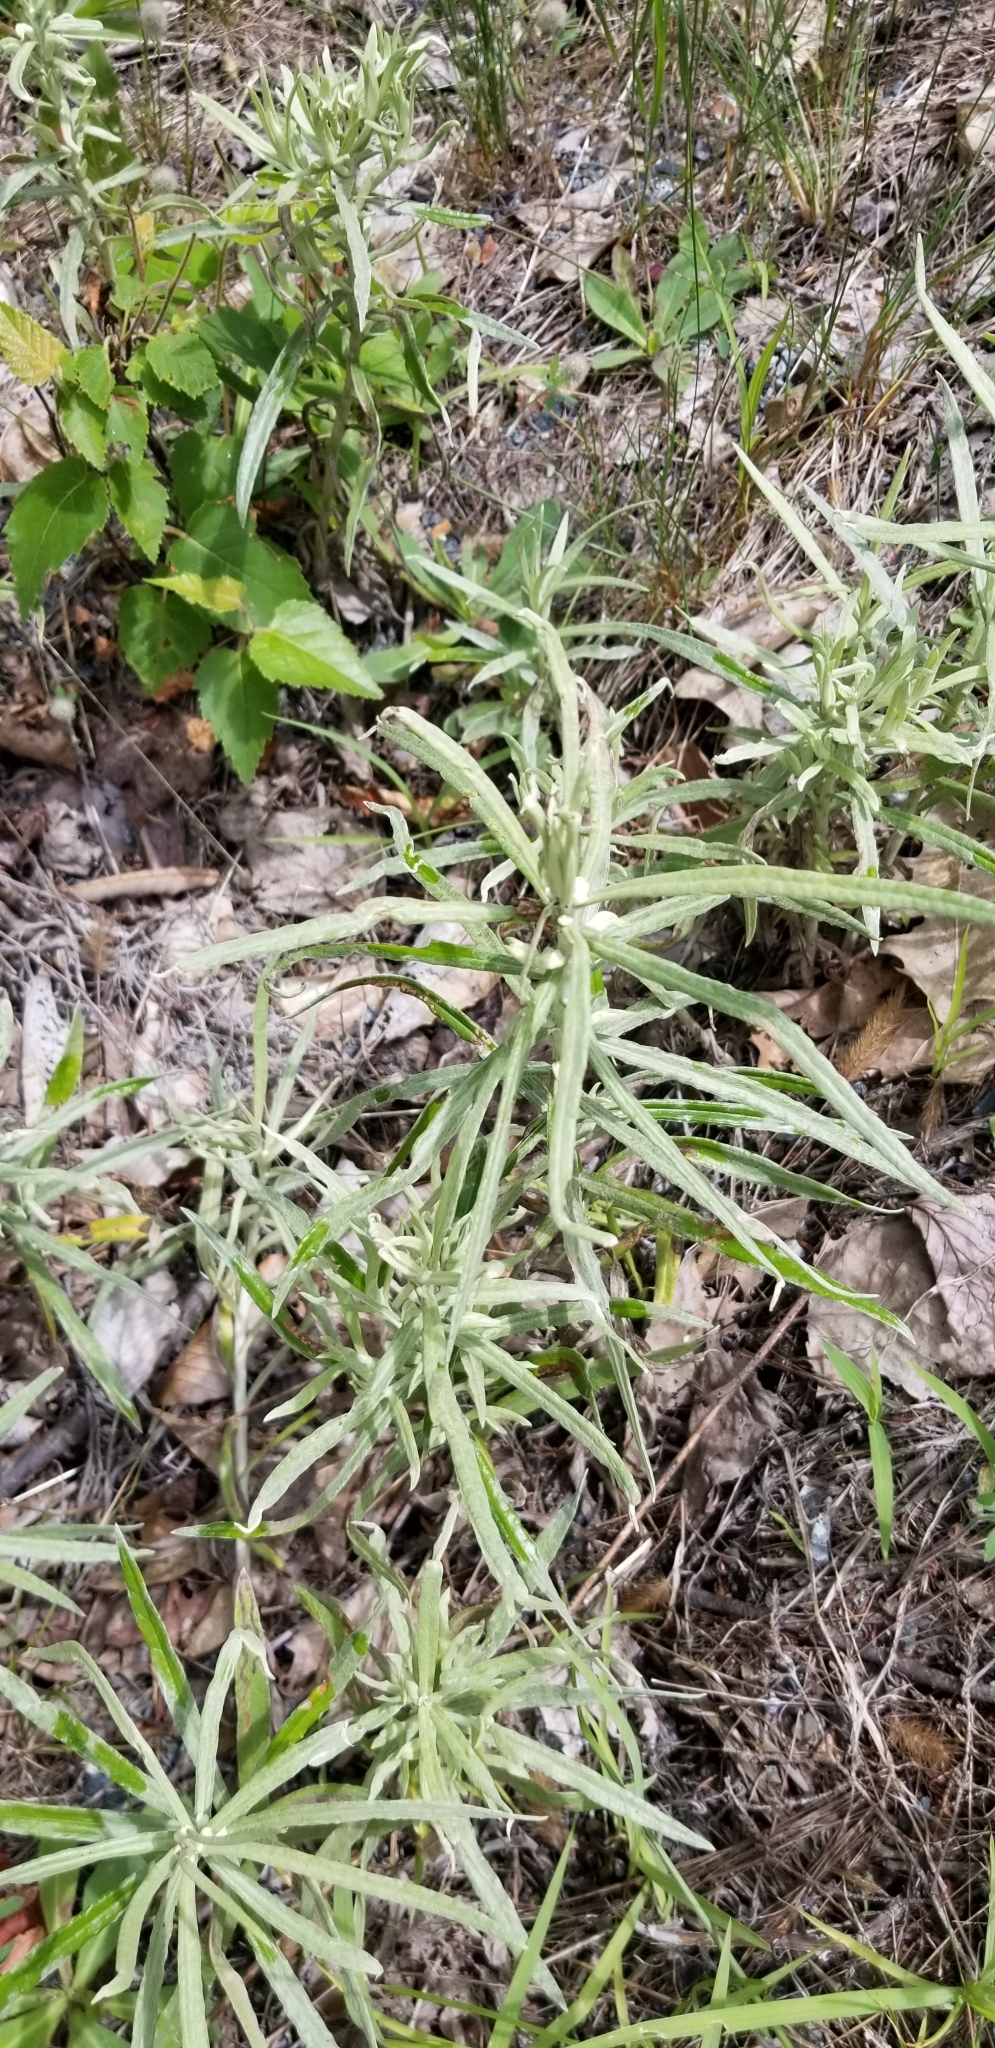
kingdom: Plantae
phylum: Tracheophyta
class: Magnoliopsida
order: Asterales
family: Asteraceae
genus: Anaphalis
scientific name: Anaphalis margaritacea
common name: Pearly everlasting
